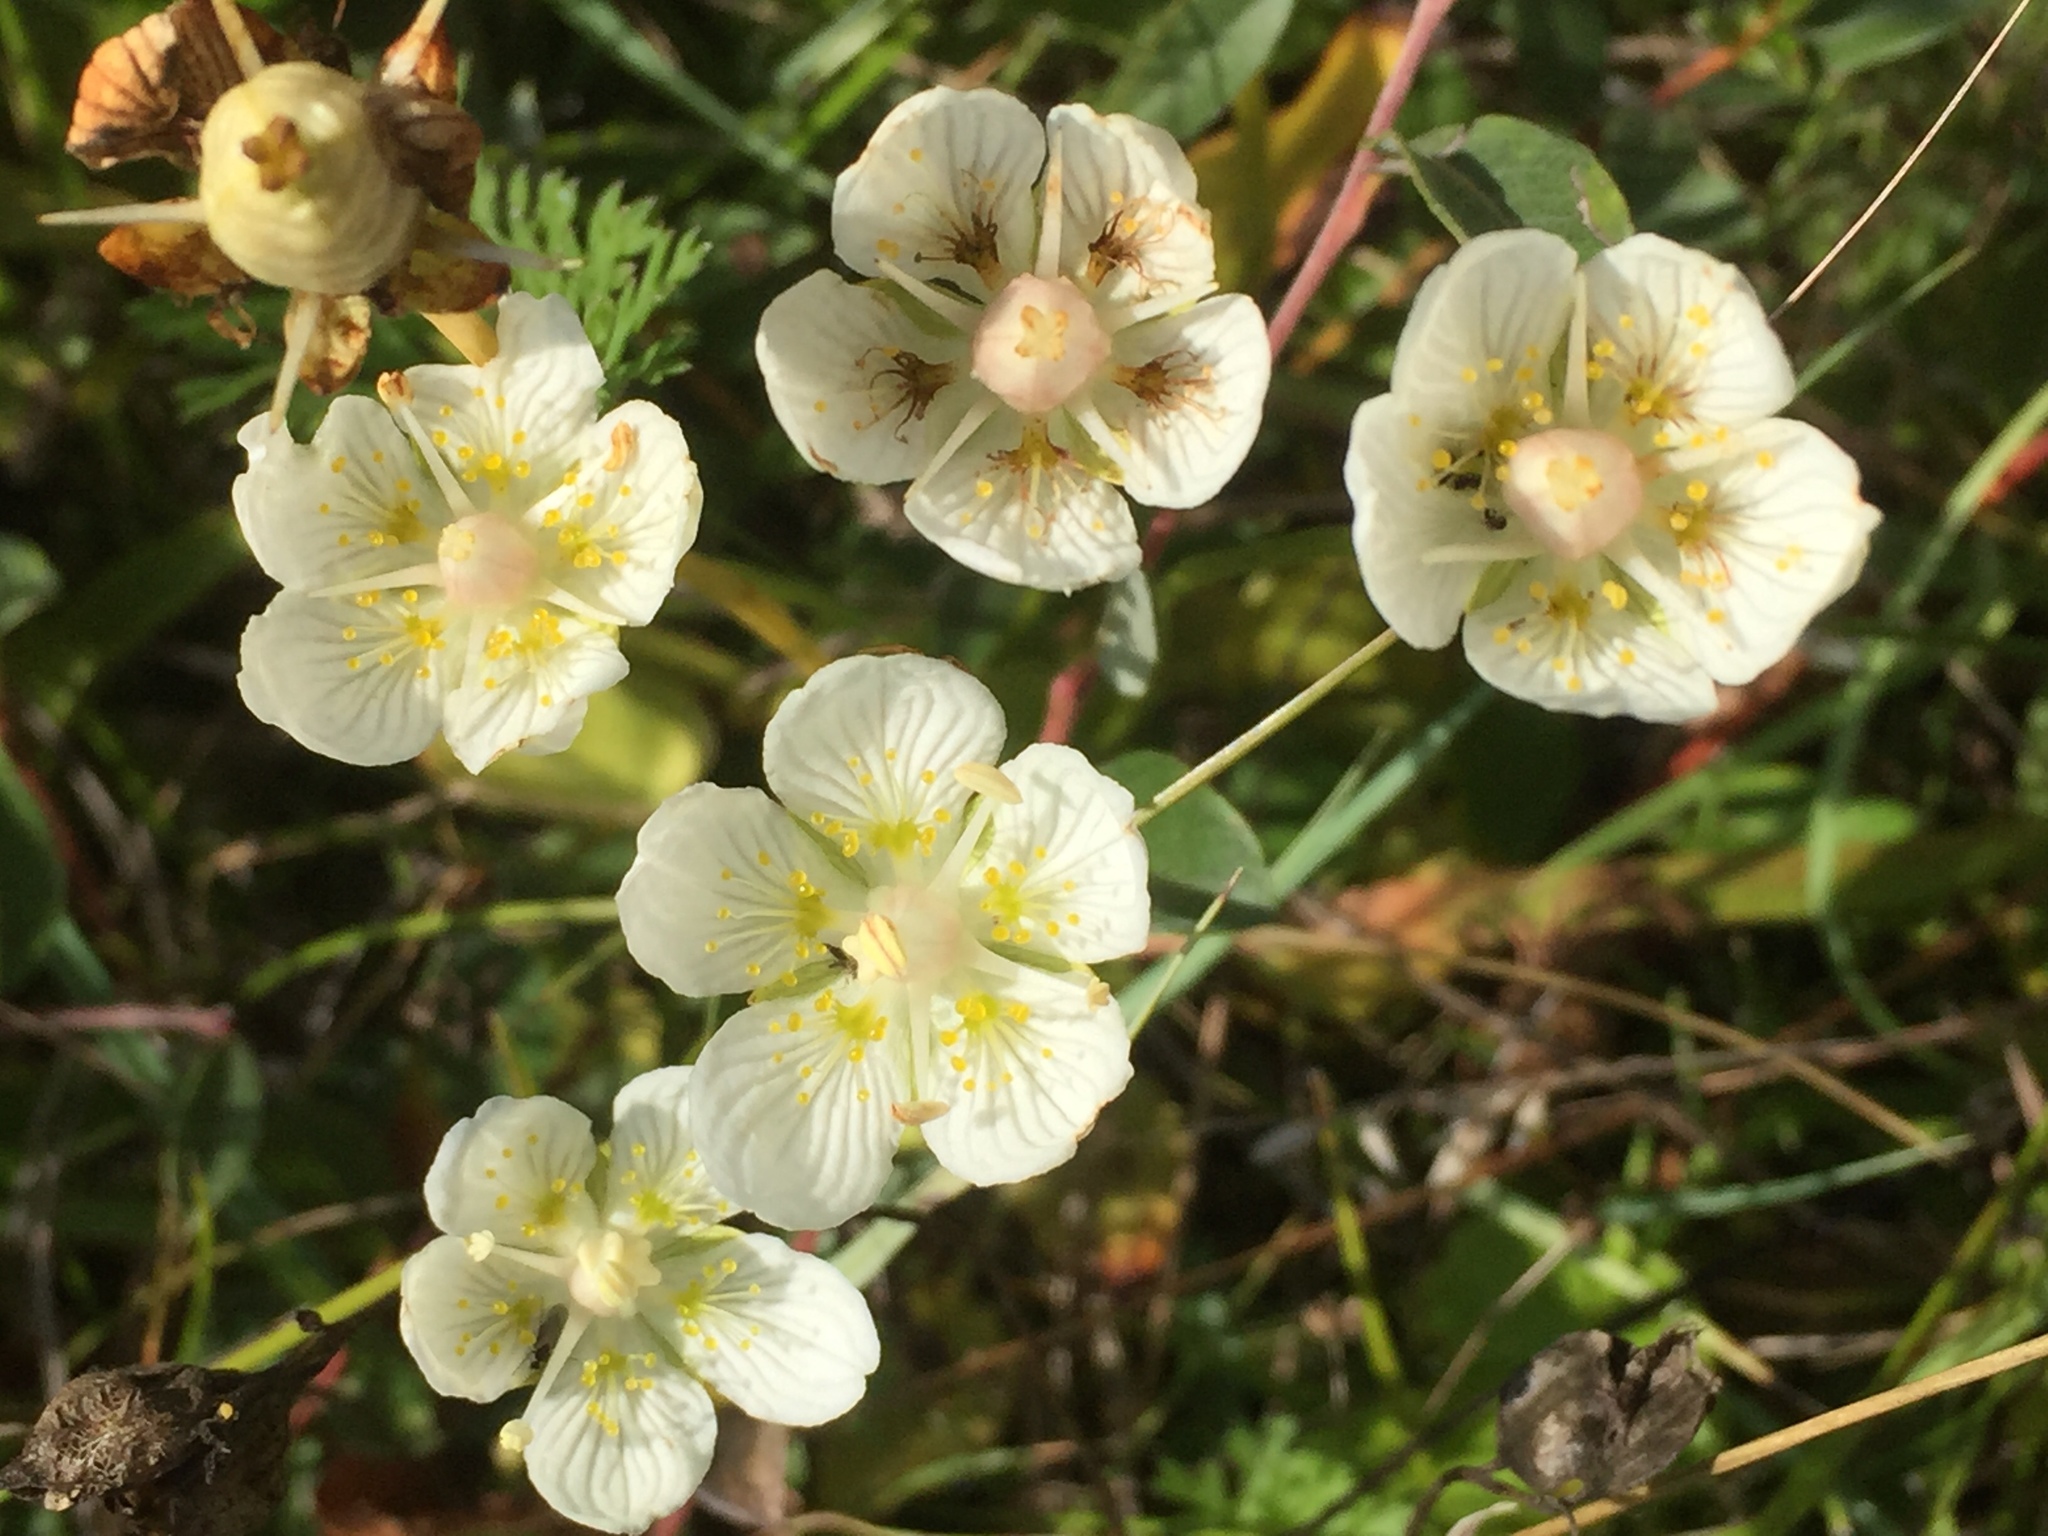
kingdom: Plantae
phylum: Tracheophyta
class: Magnoliopsida
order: Celastrales
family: Parnassiaceae
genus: Parnassia
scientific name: Parnassia palustris
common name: Grass-of-parnassus
